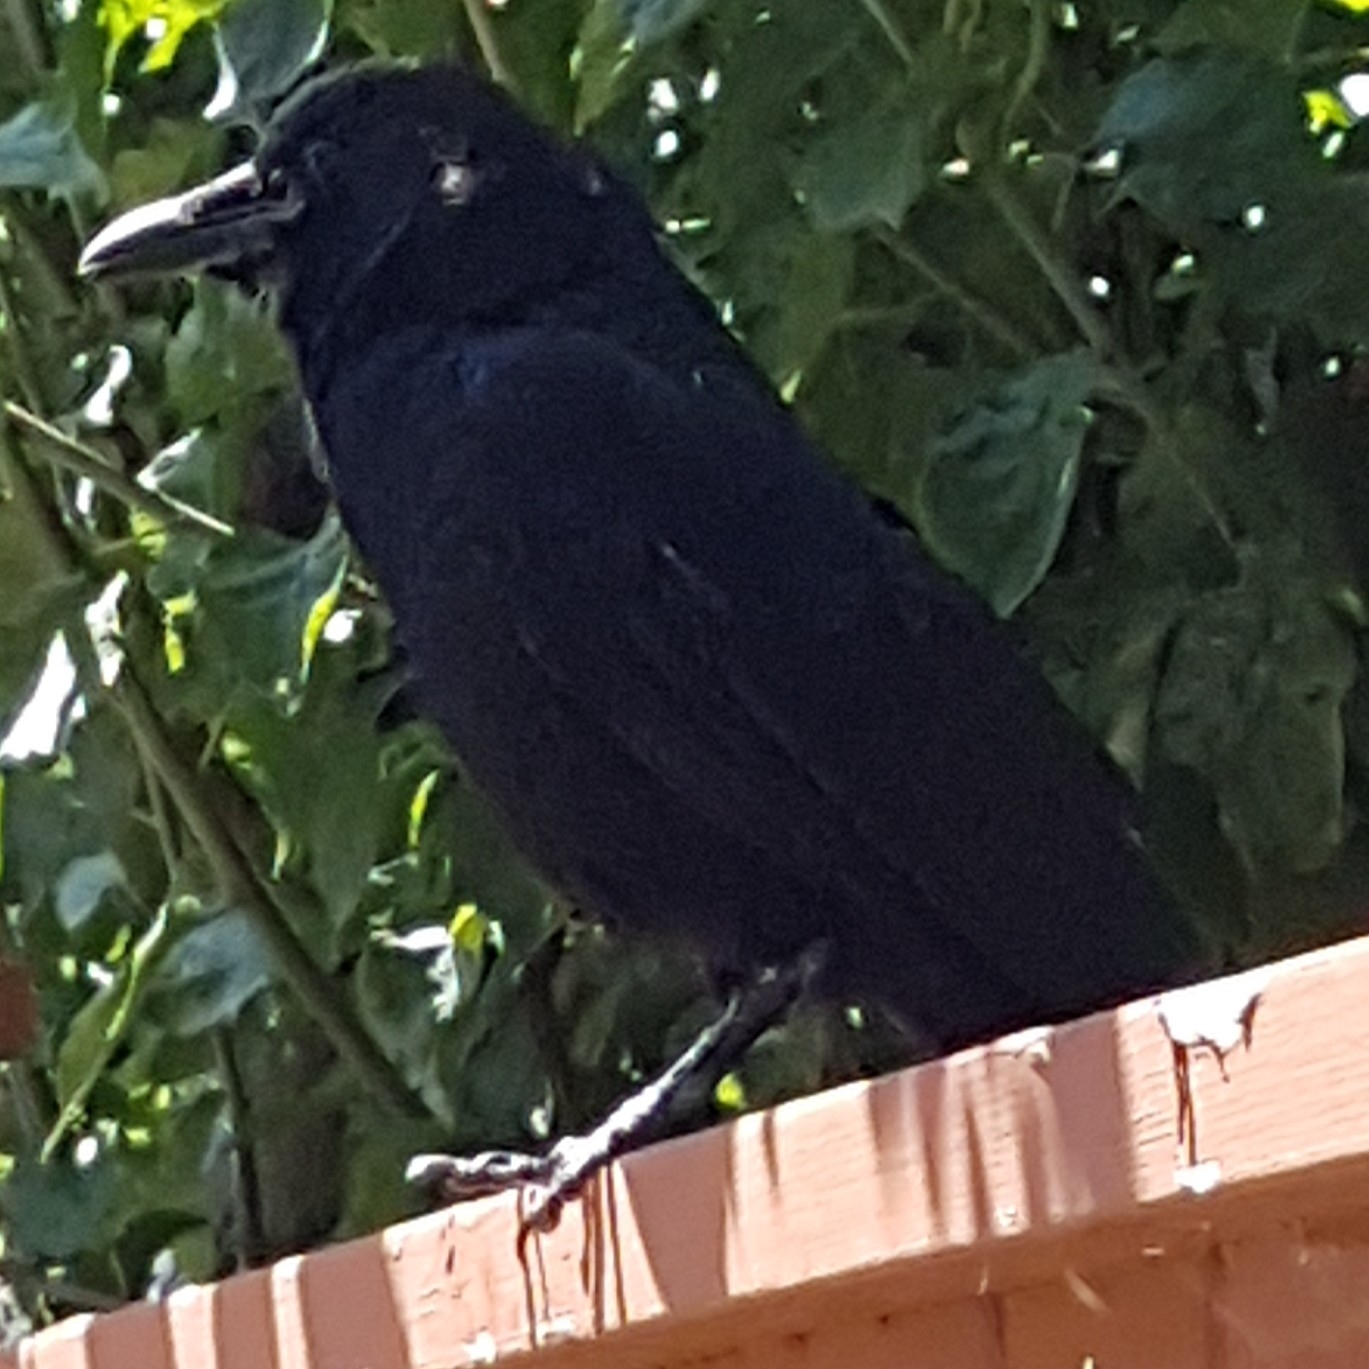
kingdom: Animalia
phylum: Chordata
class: Aves
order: Passeriformes
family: Corvidae
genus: Corvus
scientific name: Corvus brachyrhynchos
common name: American crow
